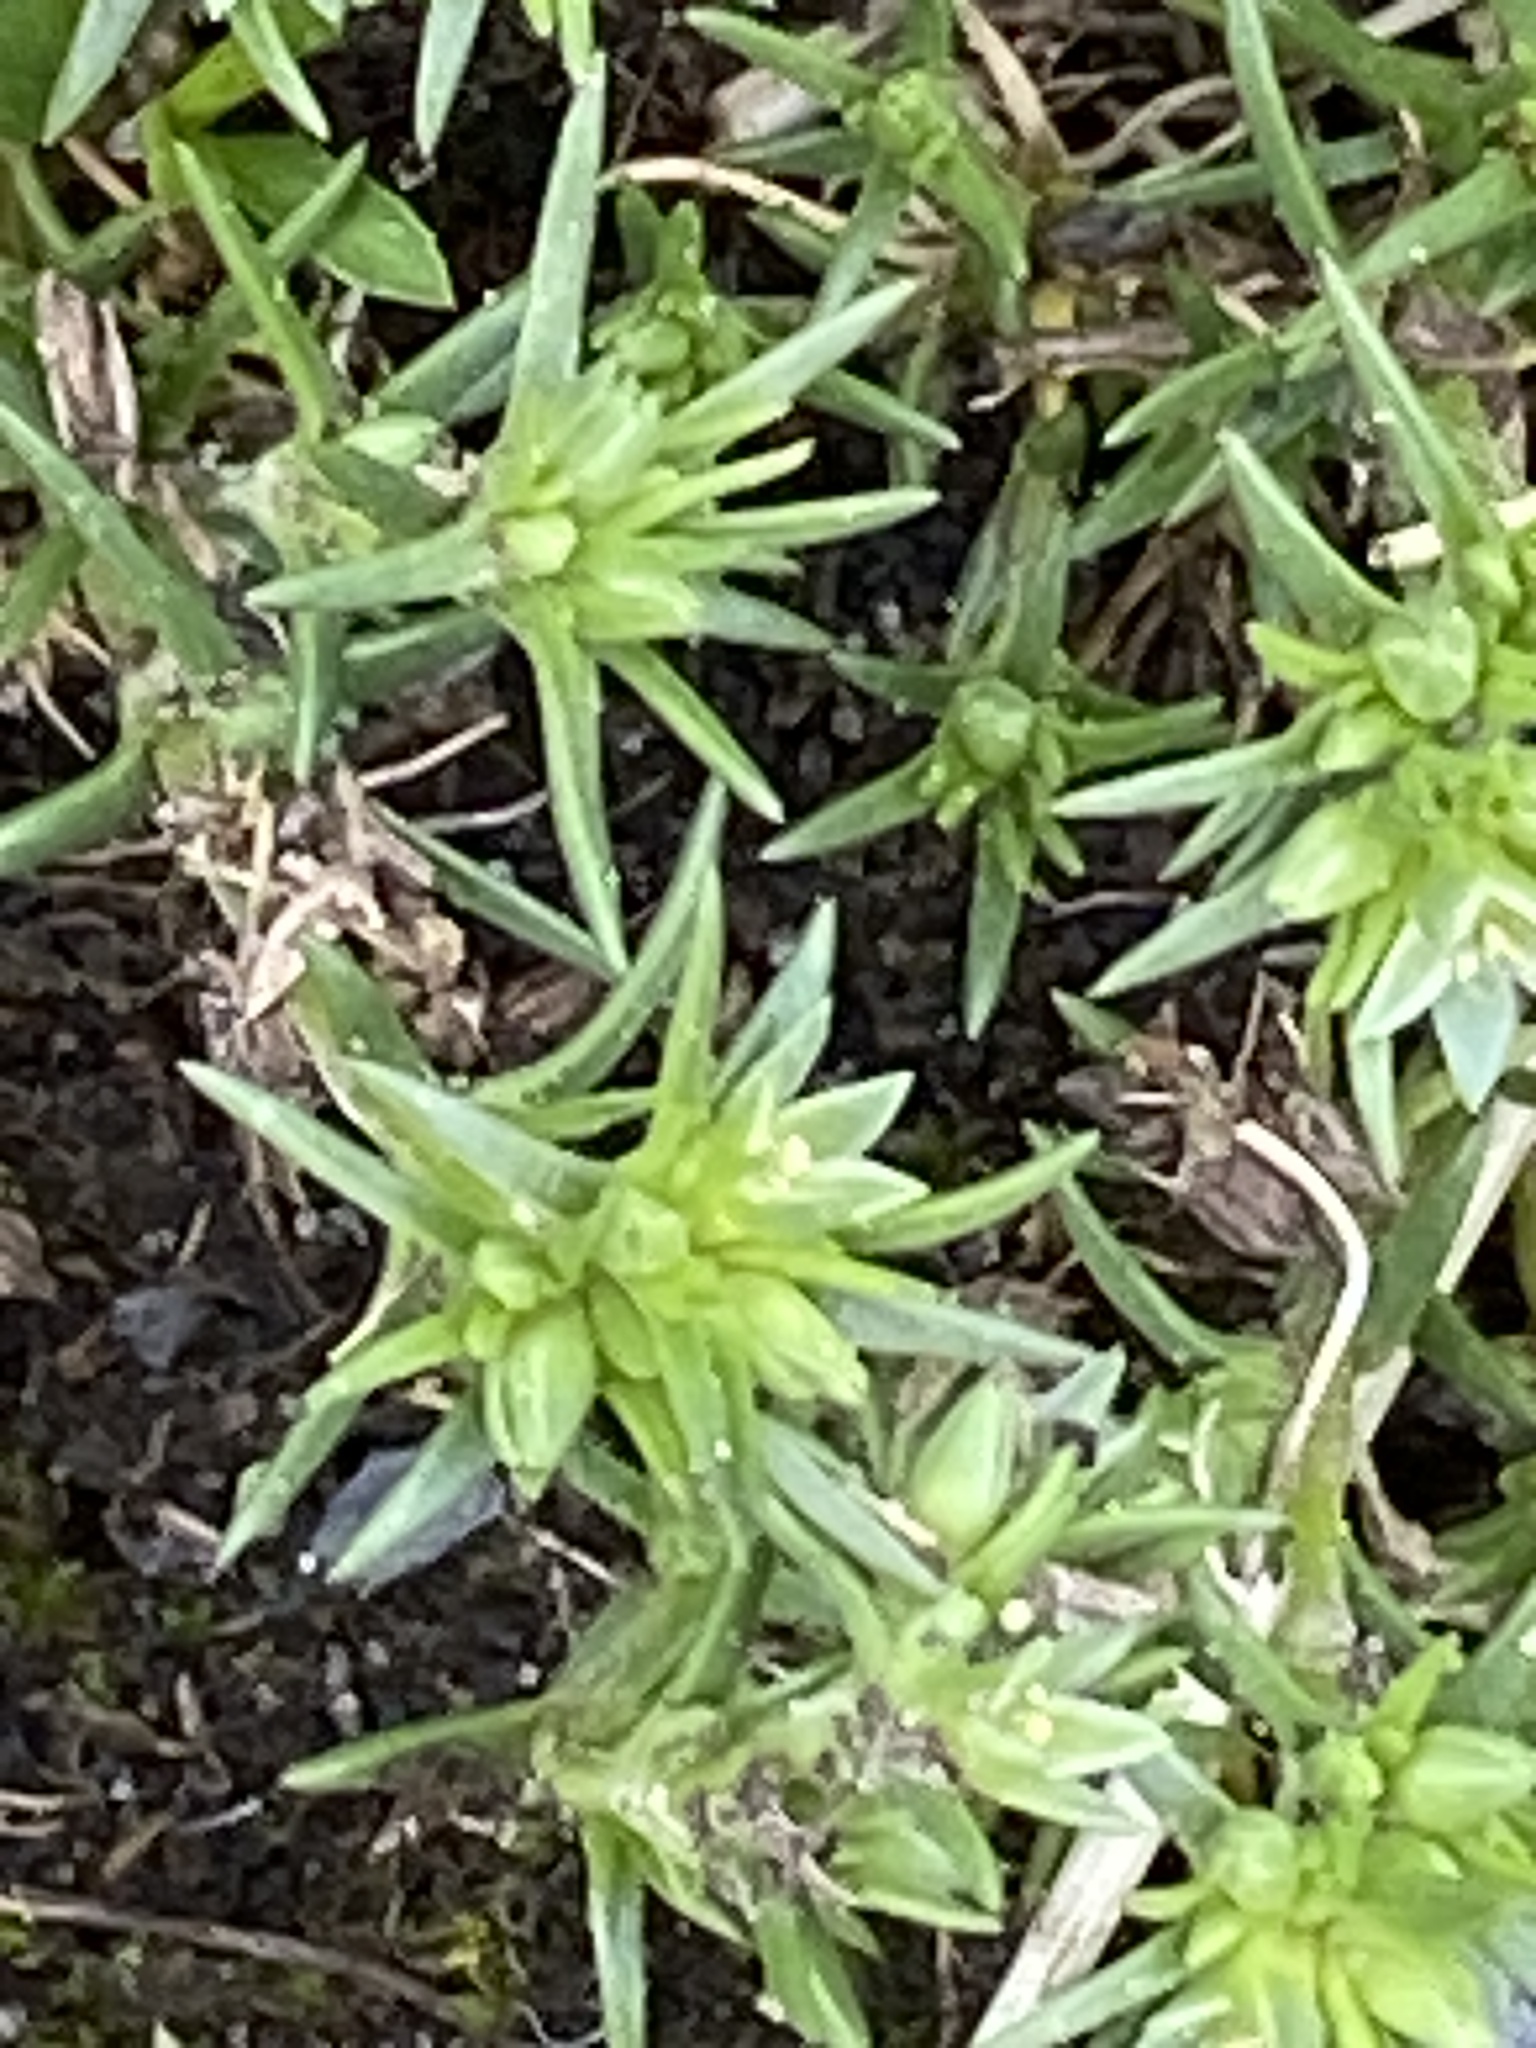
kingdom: Plantae
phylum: Tracheophyta
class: Magnoliopsida
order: Caryophyllales
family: Caryophyllaceae
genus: Scleranthus
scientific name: Scleranthus annuus
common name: Annual knawel
